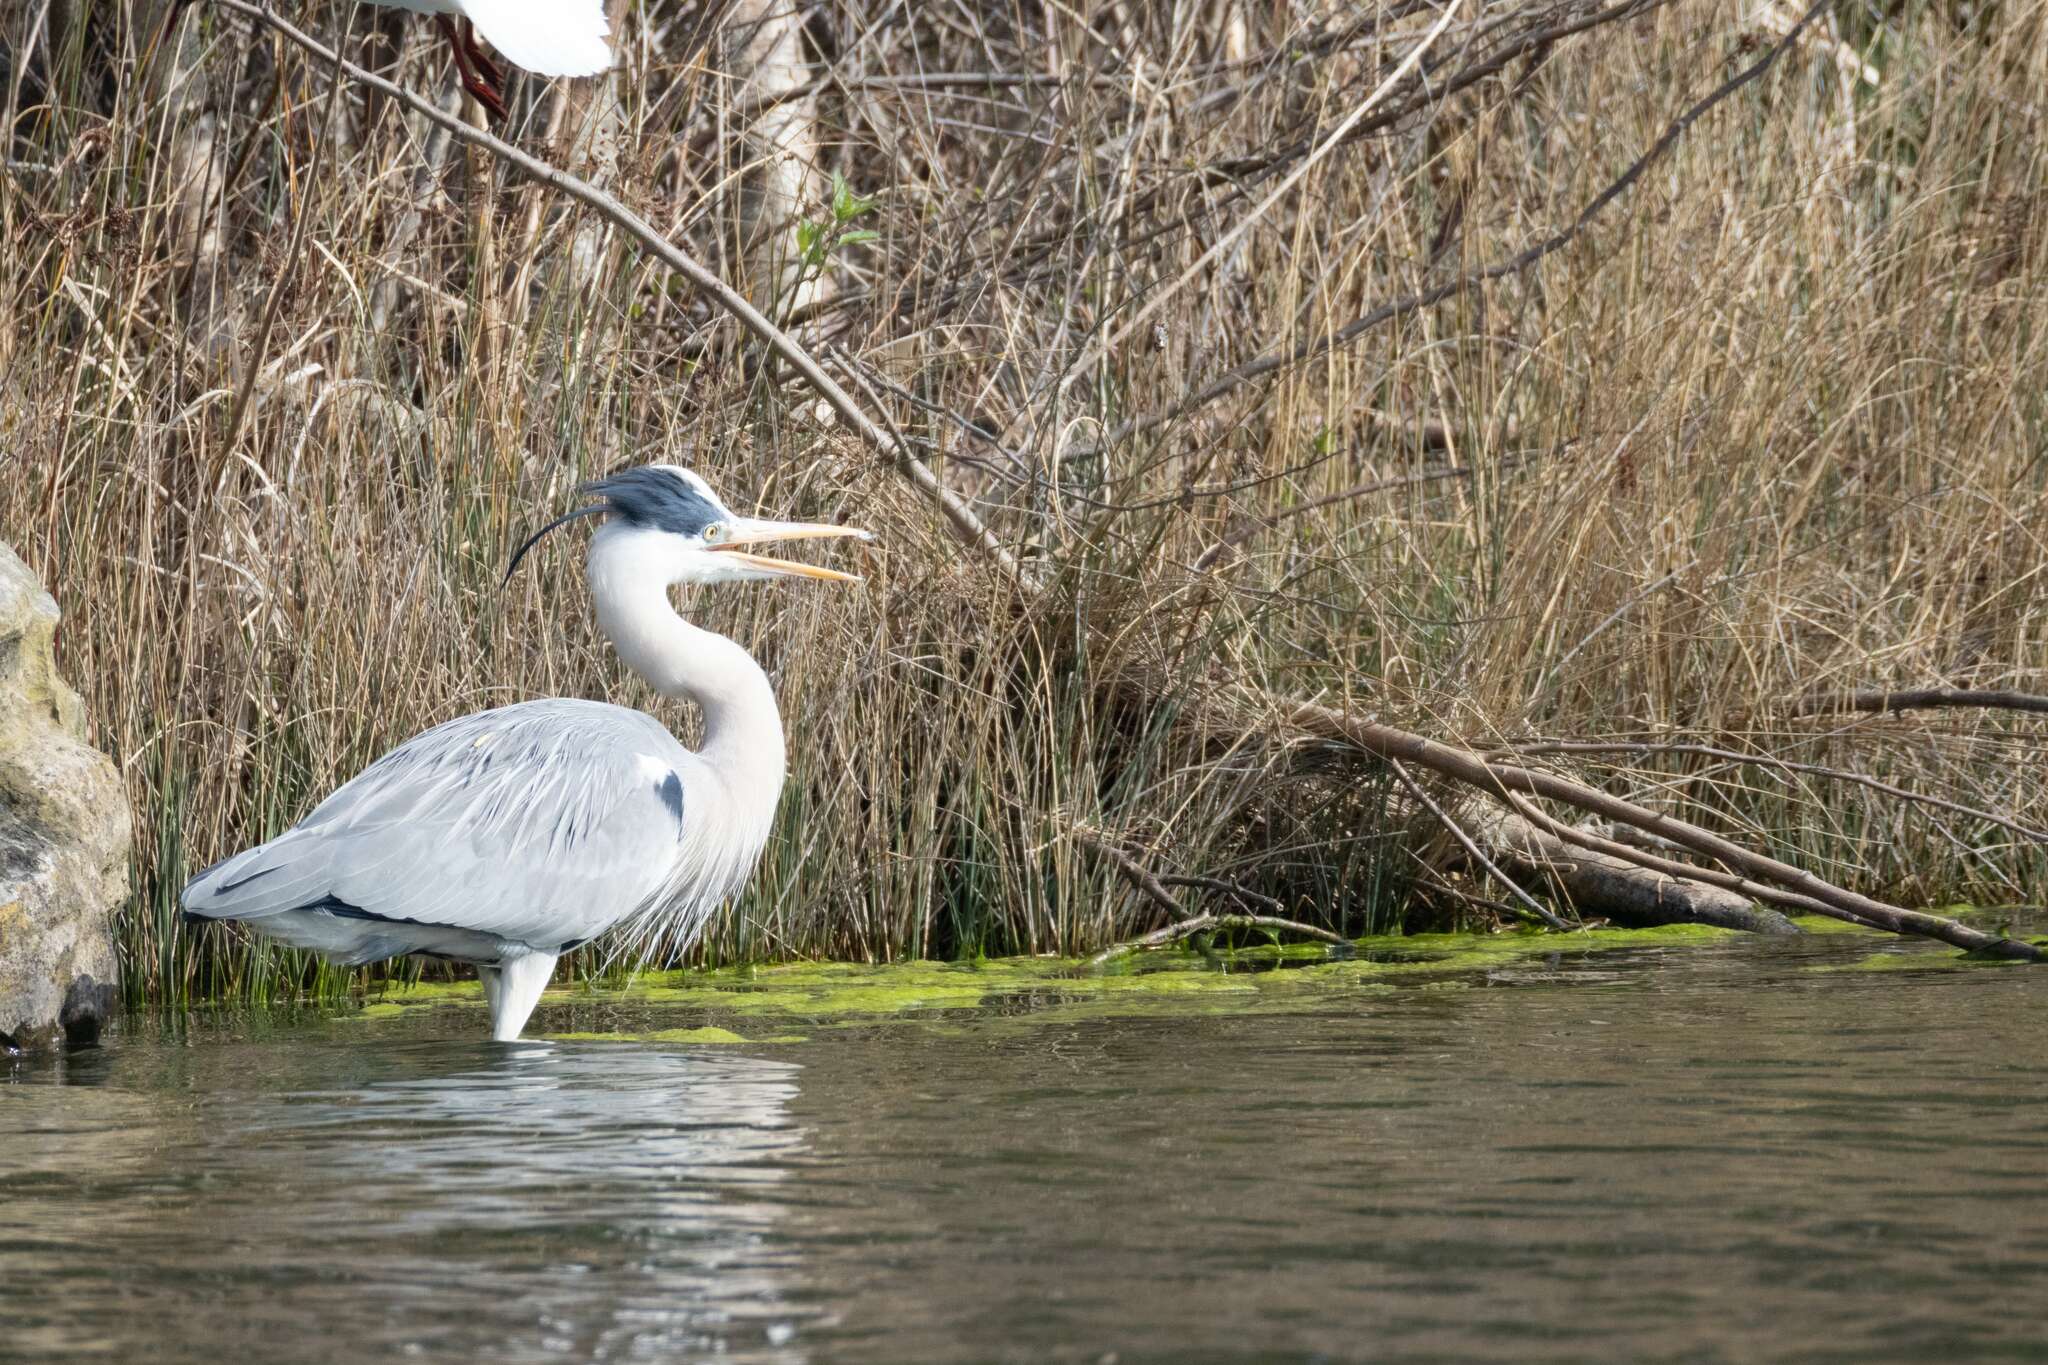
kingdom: Animalia
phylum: Chordata
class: Aves
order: Pelecaniformes
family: Ardeidae
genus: Ardea
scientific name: Ardea cinerea
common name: Grey heron
